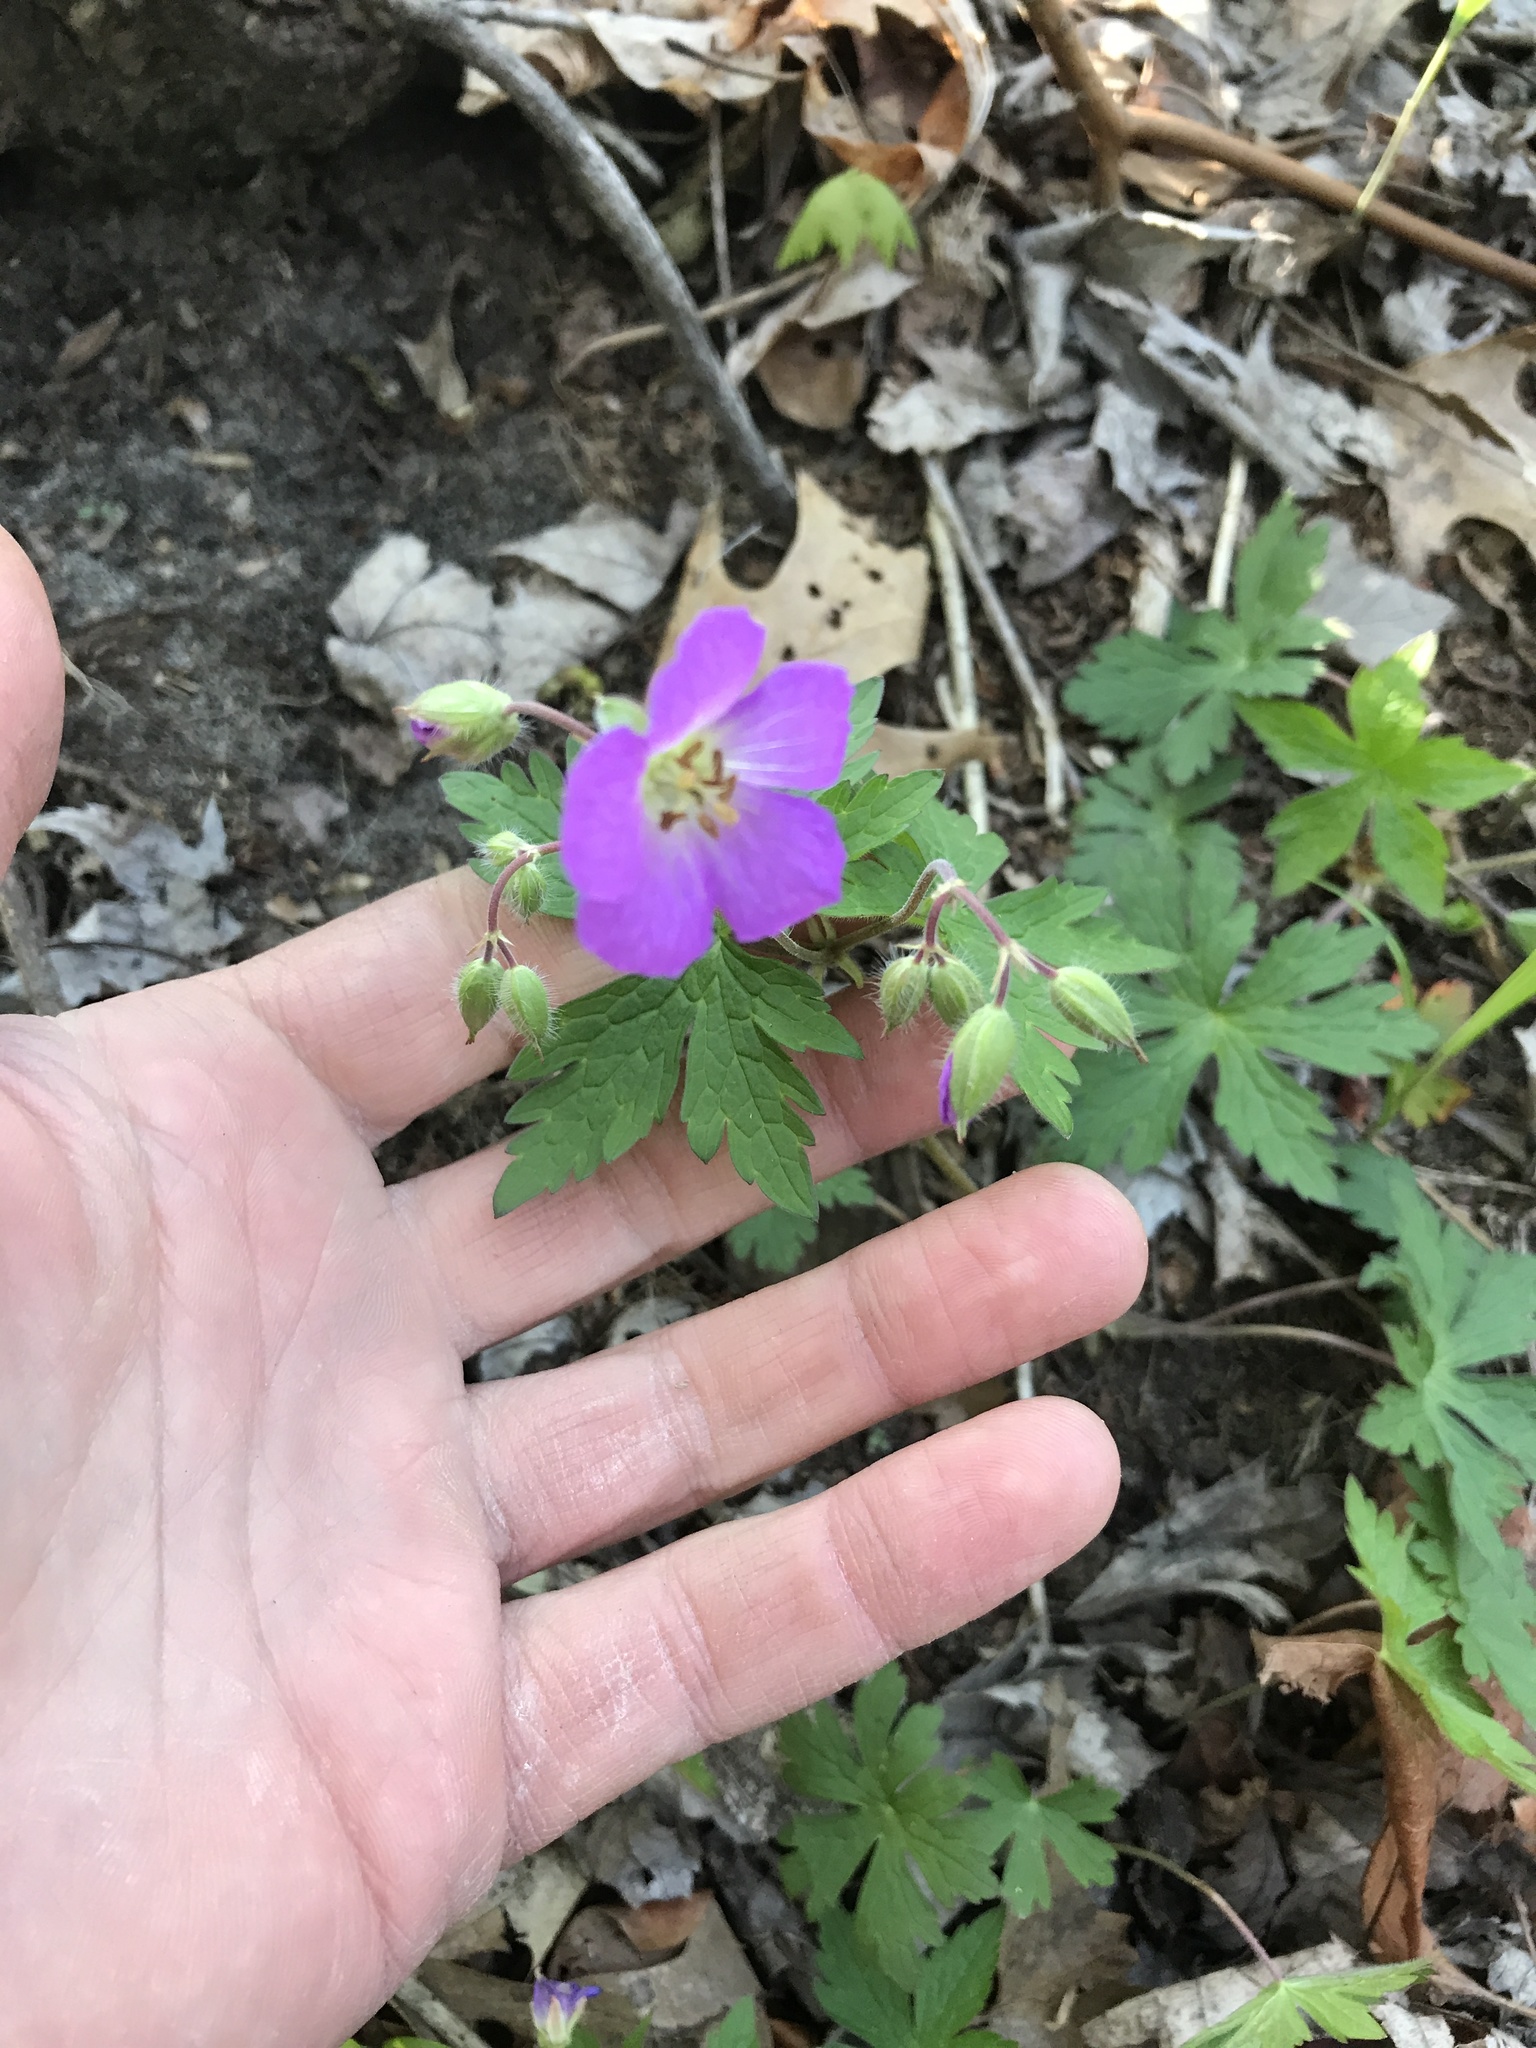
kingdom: Plantae
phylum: Tracheophyta
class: Magnoliopsida
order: Geraniales
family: Geraniaceae
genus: Geranium
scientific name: Geranium maculatum
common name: Spotted geranium
